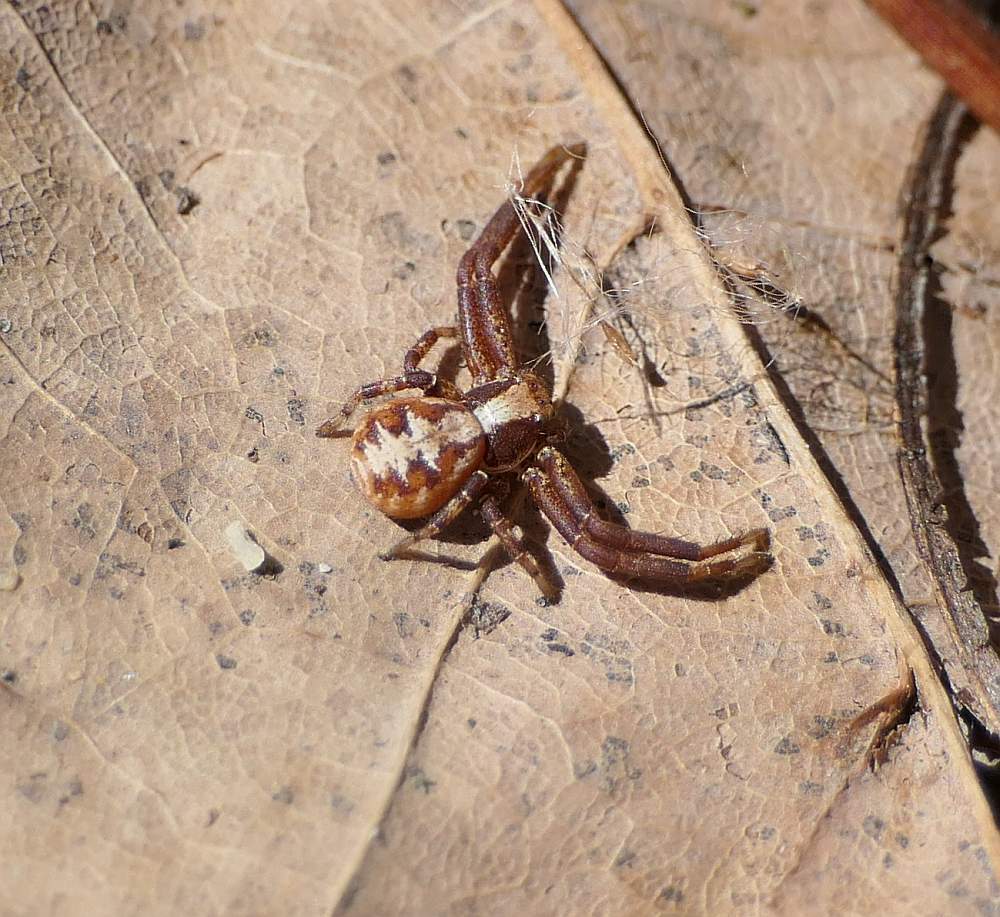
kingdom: Animalia
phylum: Arthropoda
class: Arachnida
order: Araneae
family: Thomisidae
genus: Xysticus
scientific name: Xysticus punctatus
